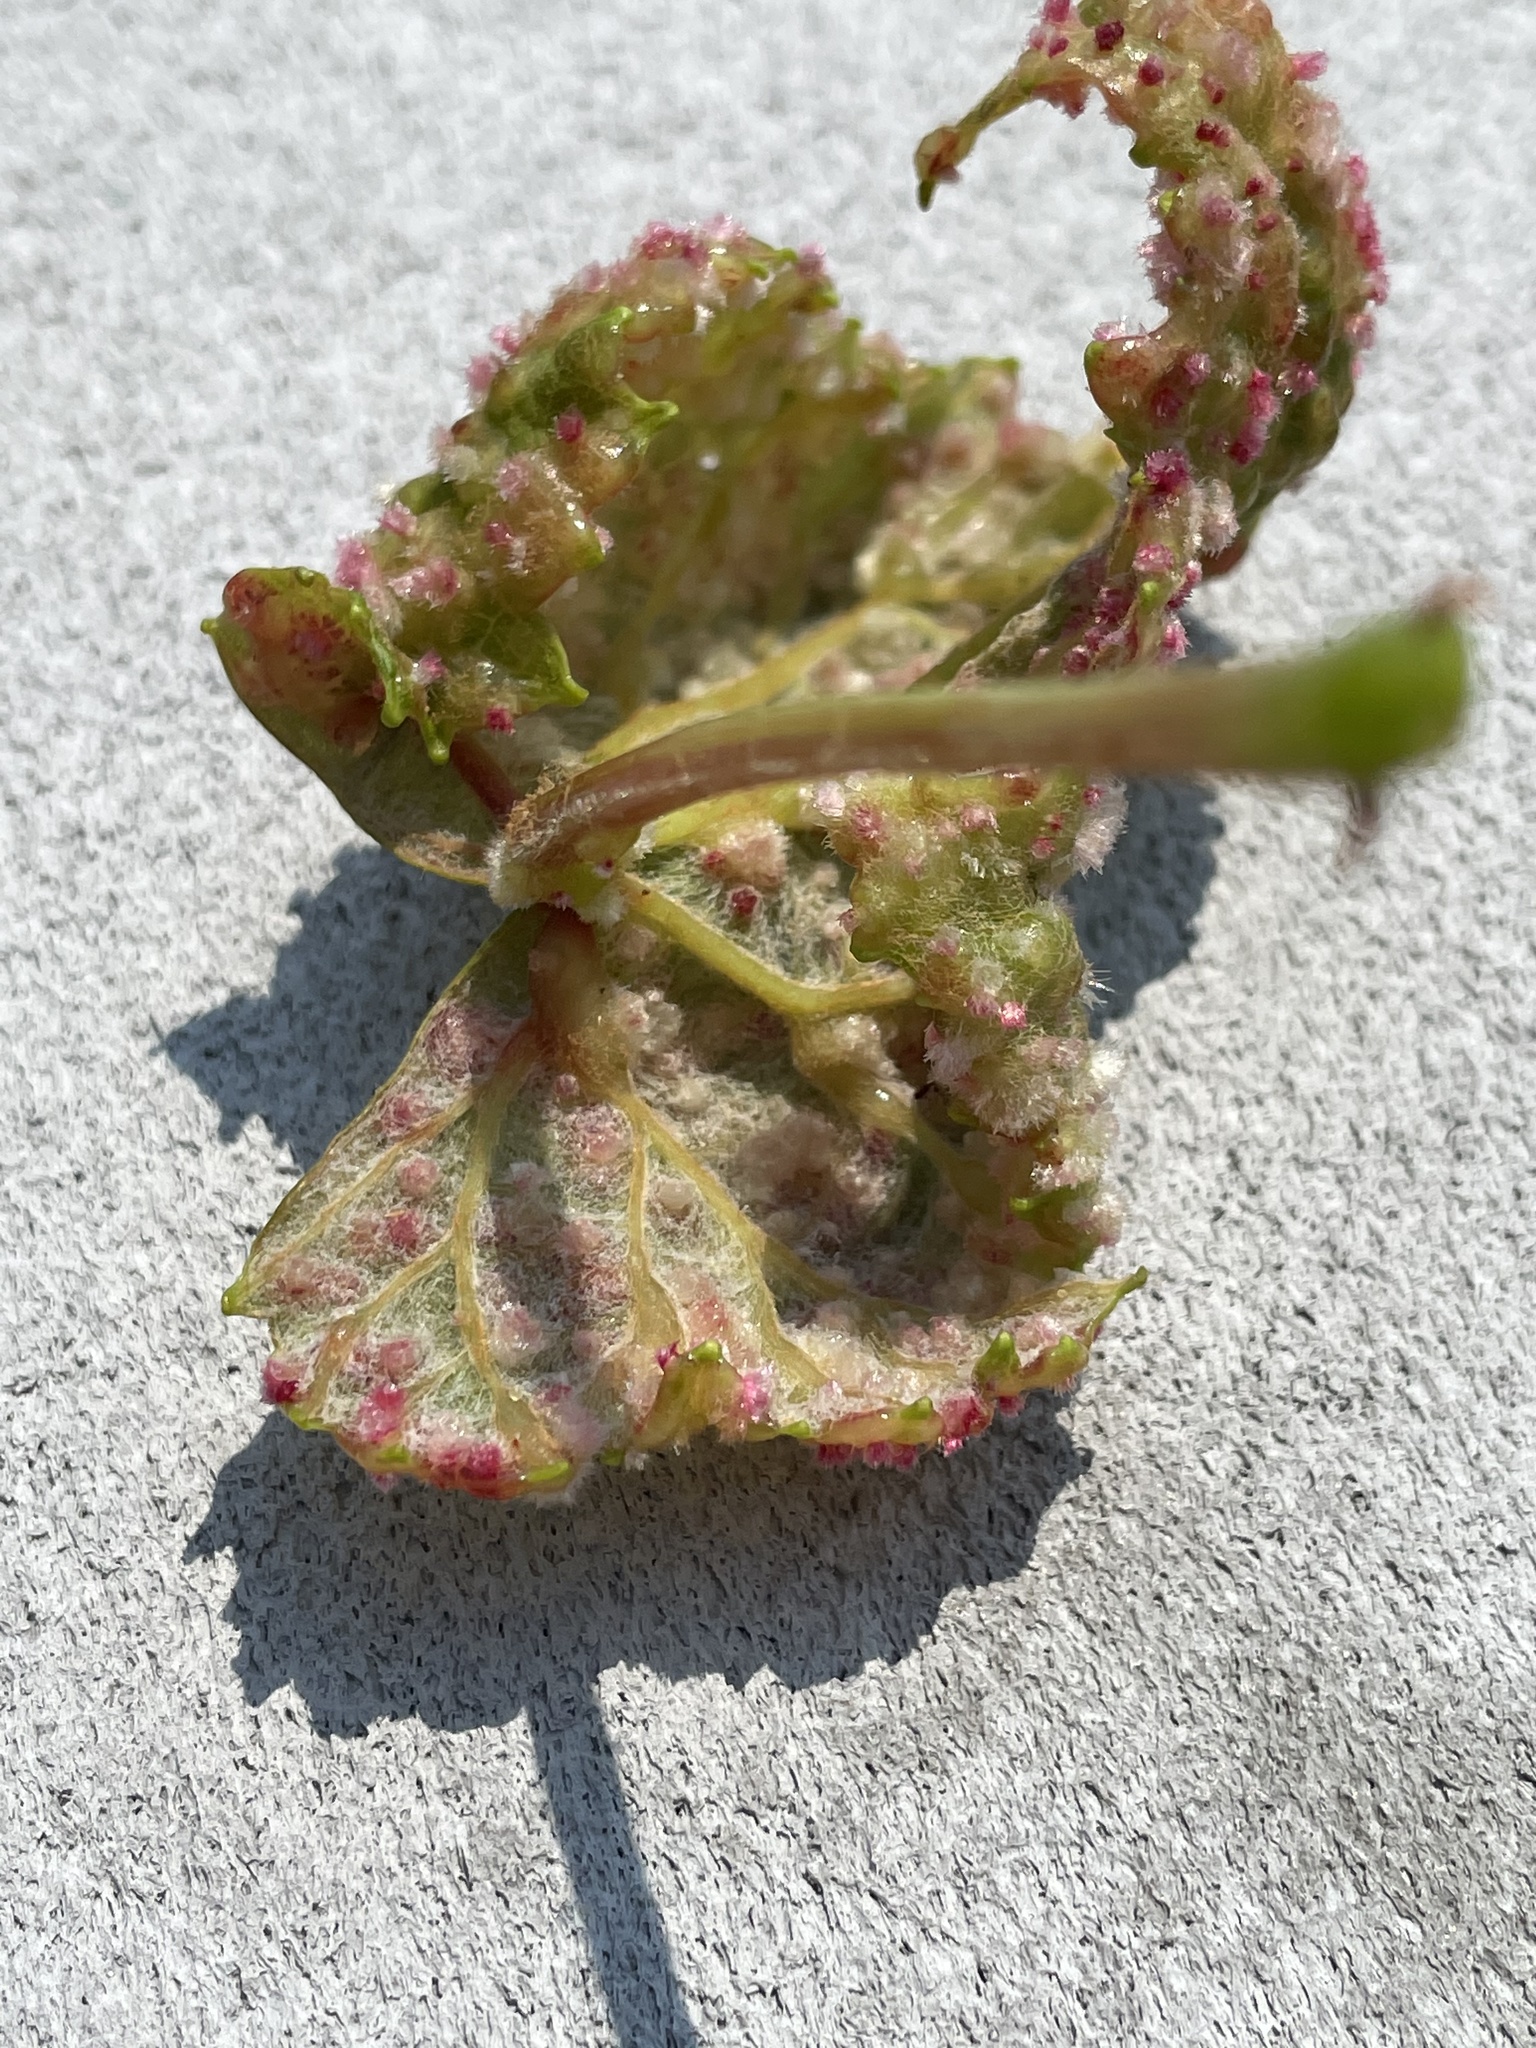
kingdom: Animalia
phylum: Arthropoda
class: Insecta
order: Diptera
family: Cecidomyiidae
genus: Vitisiella
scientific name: Vitisiella
